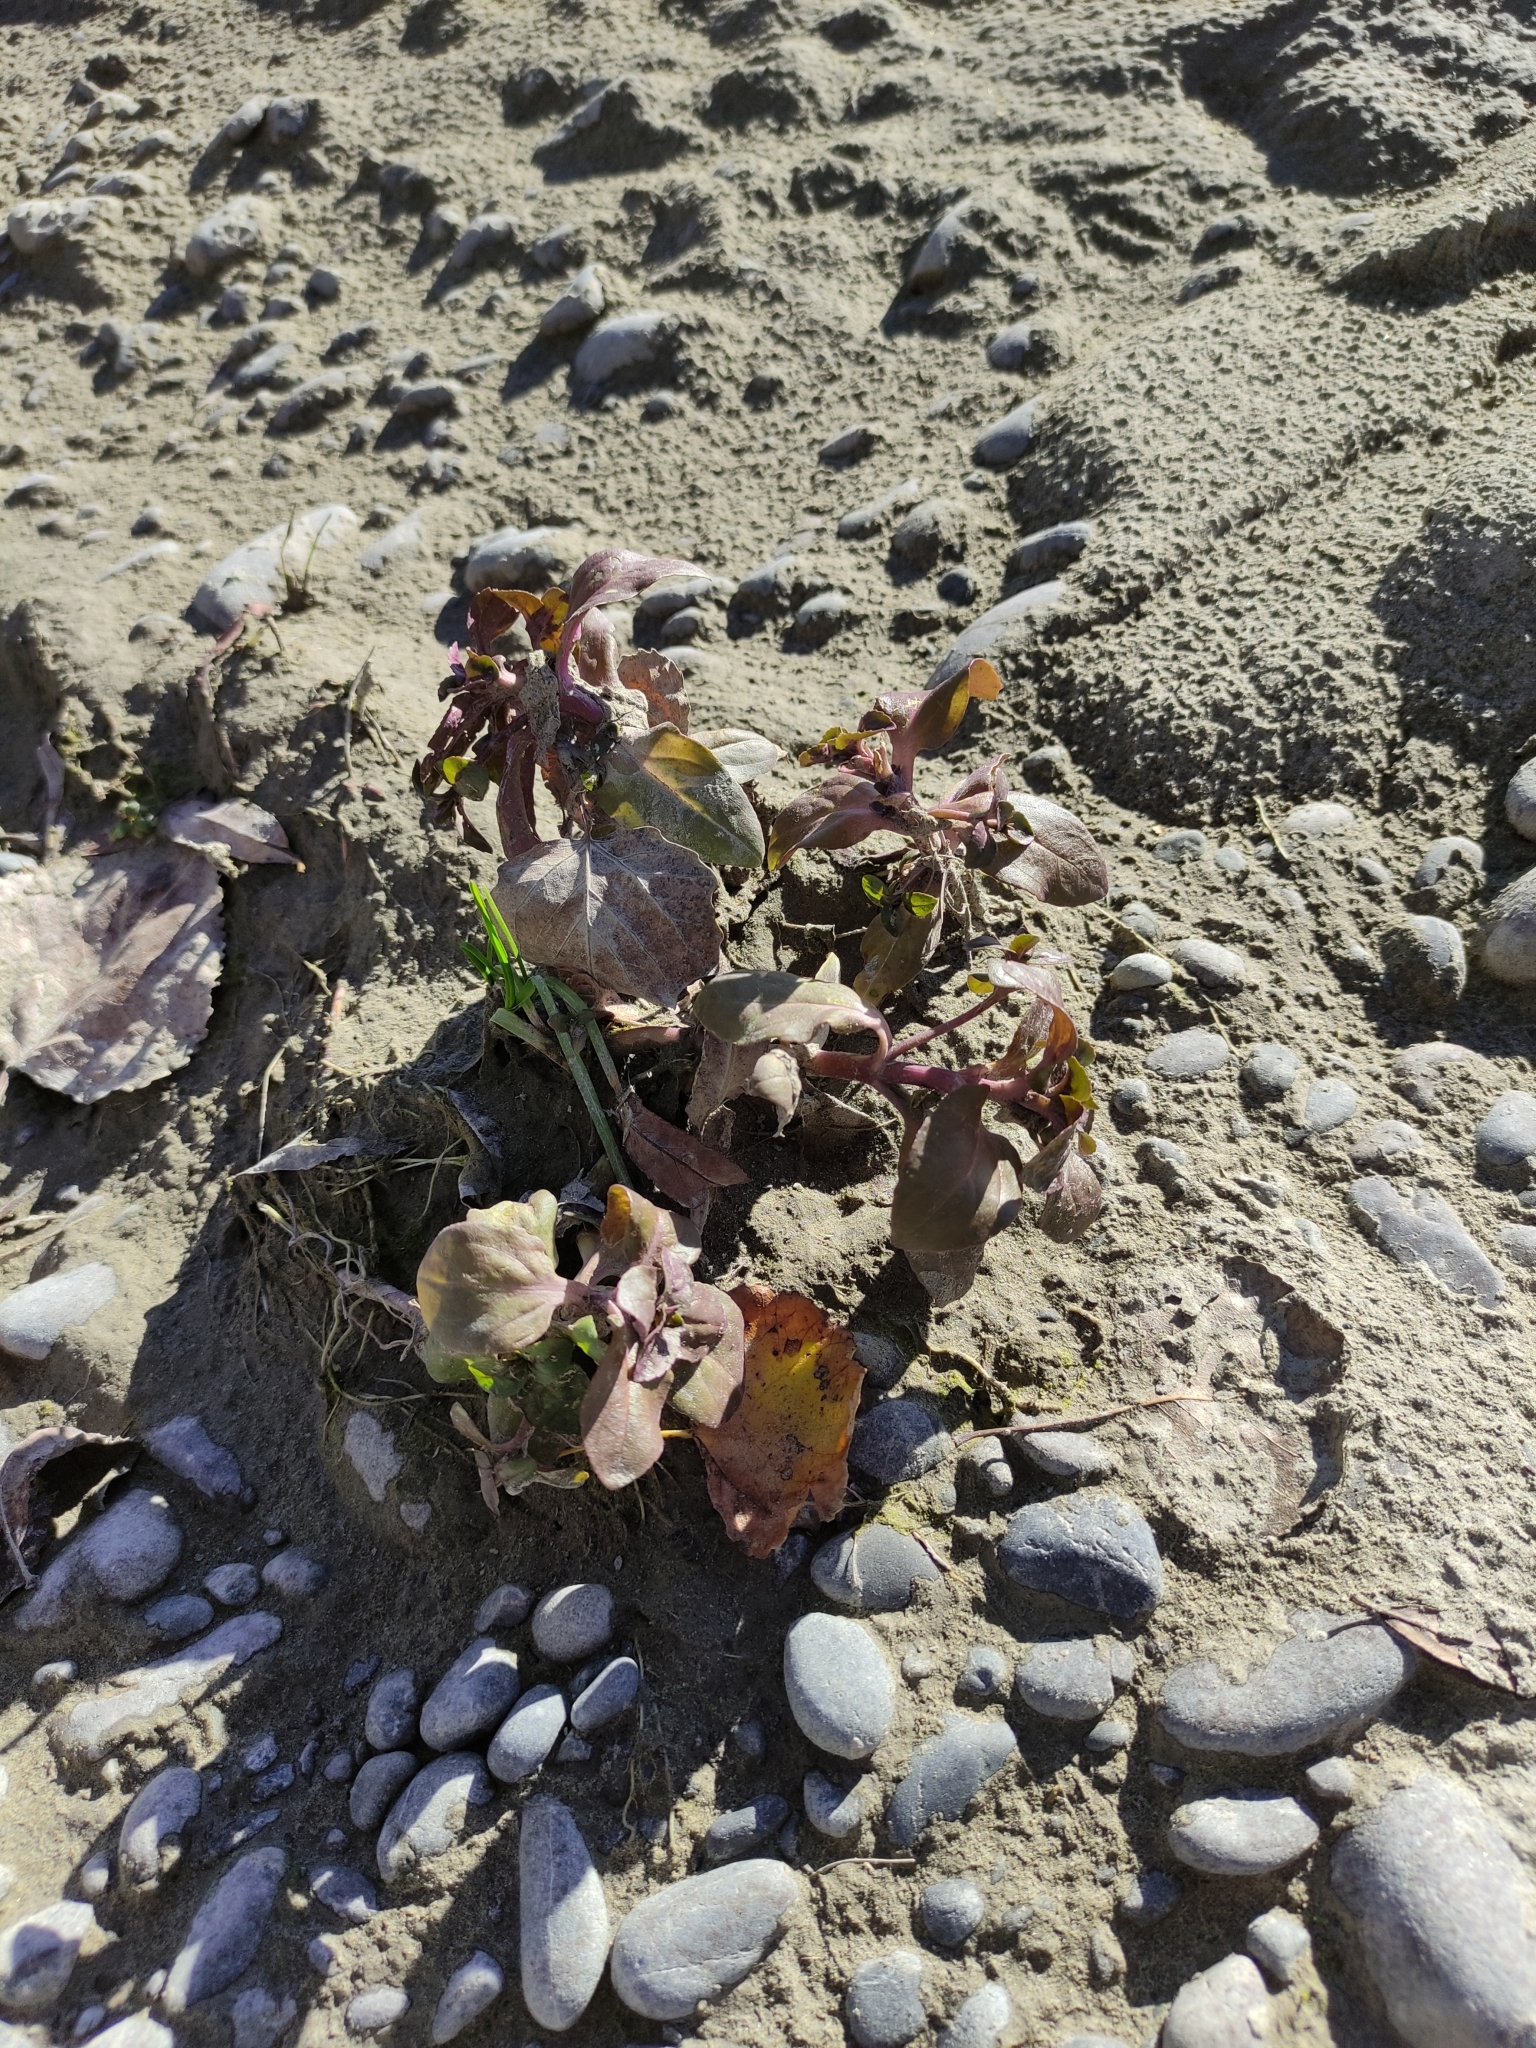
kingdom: Plantae
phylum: Tracheophyta
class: Magnoliopsida
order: Lamiales
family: Phrymaceae
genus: Erythranthe
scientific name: Erythranthe guttata
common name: Monkeyflower
